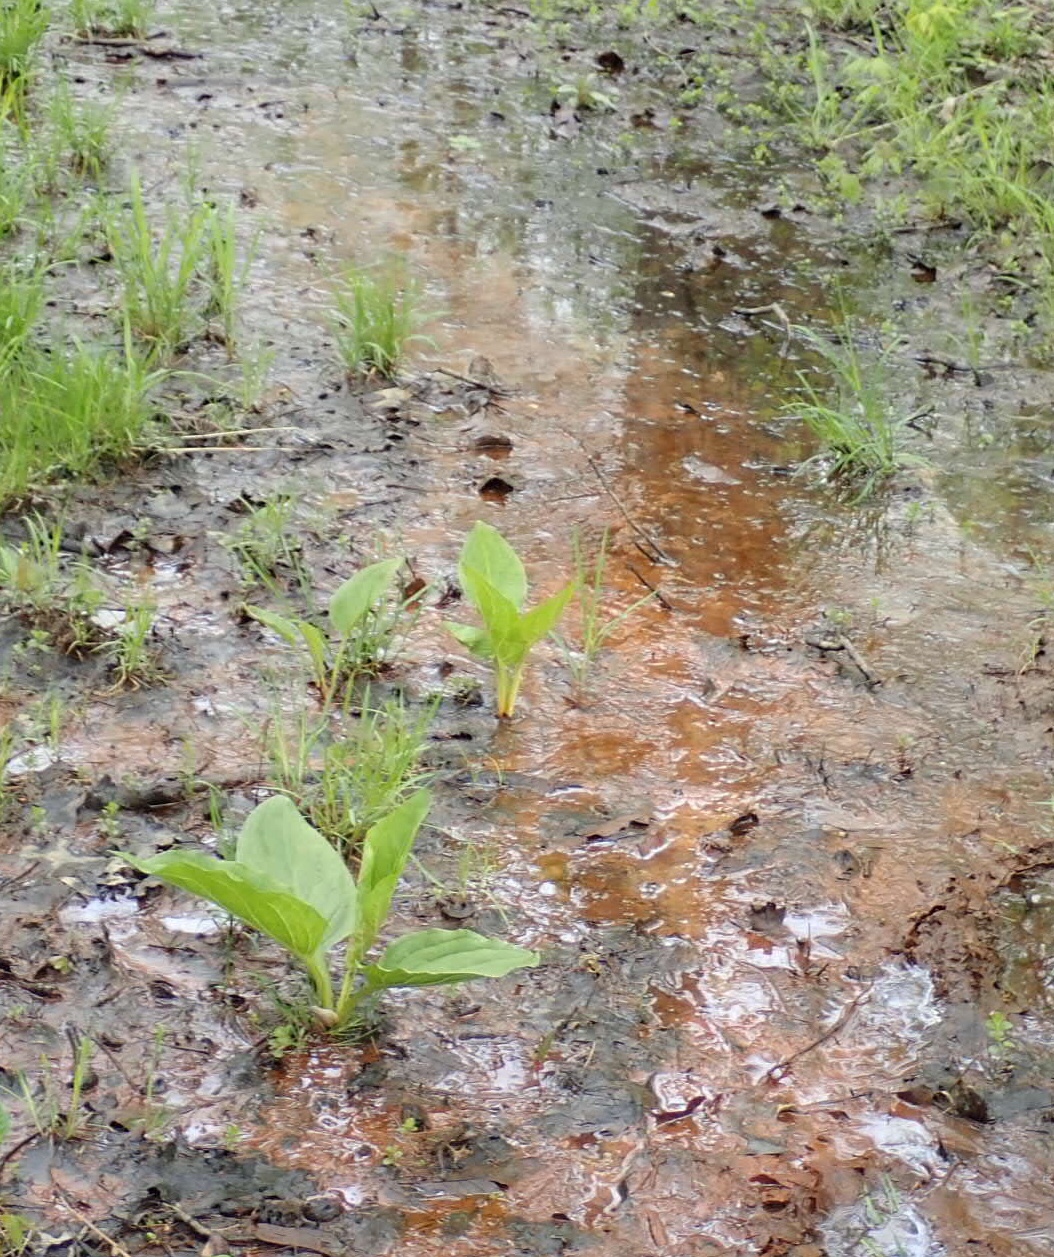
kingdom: Plantae
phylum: Tracheophyta
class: Liliopsida
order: Alismatales
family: Araceae
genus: Symplocarpus
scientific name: Symplocarpus foetidus
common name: Eastern skunk cabbage
